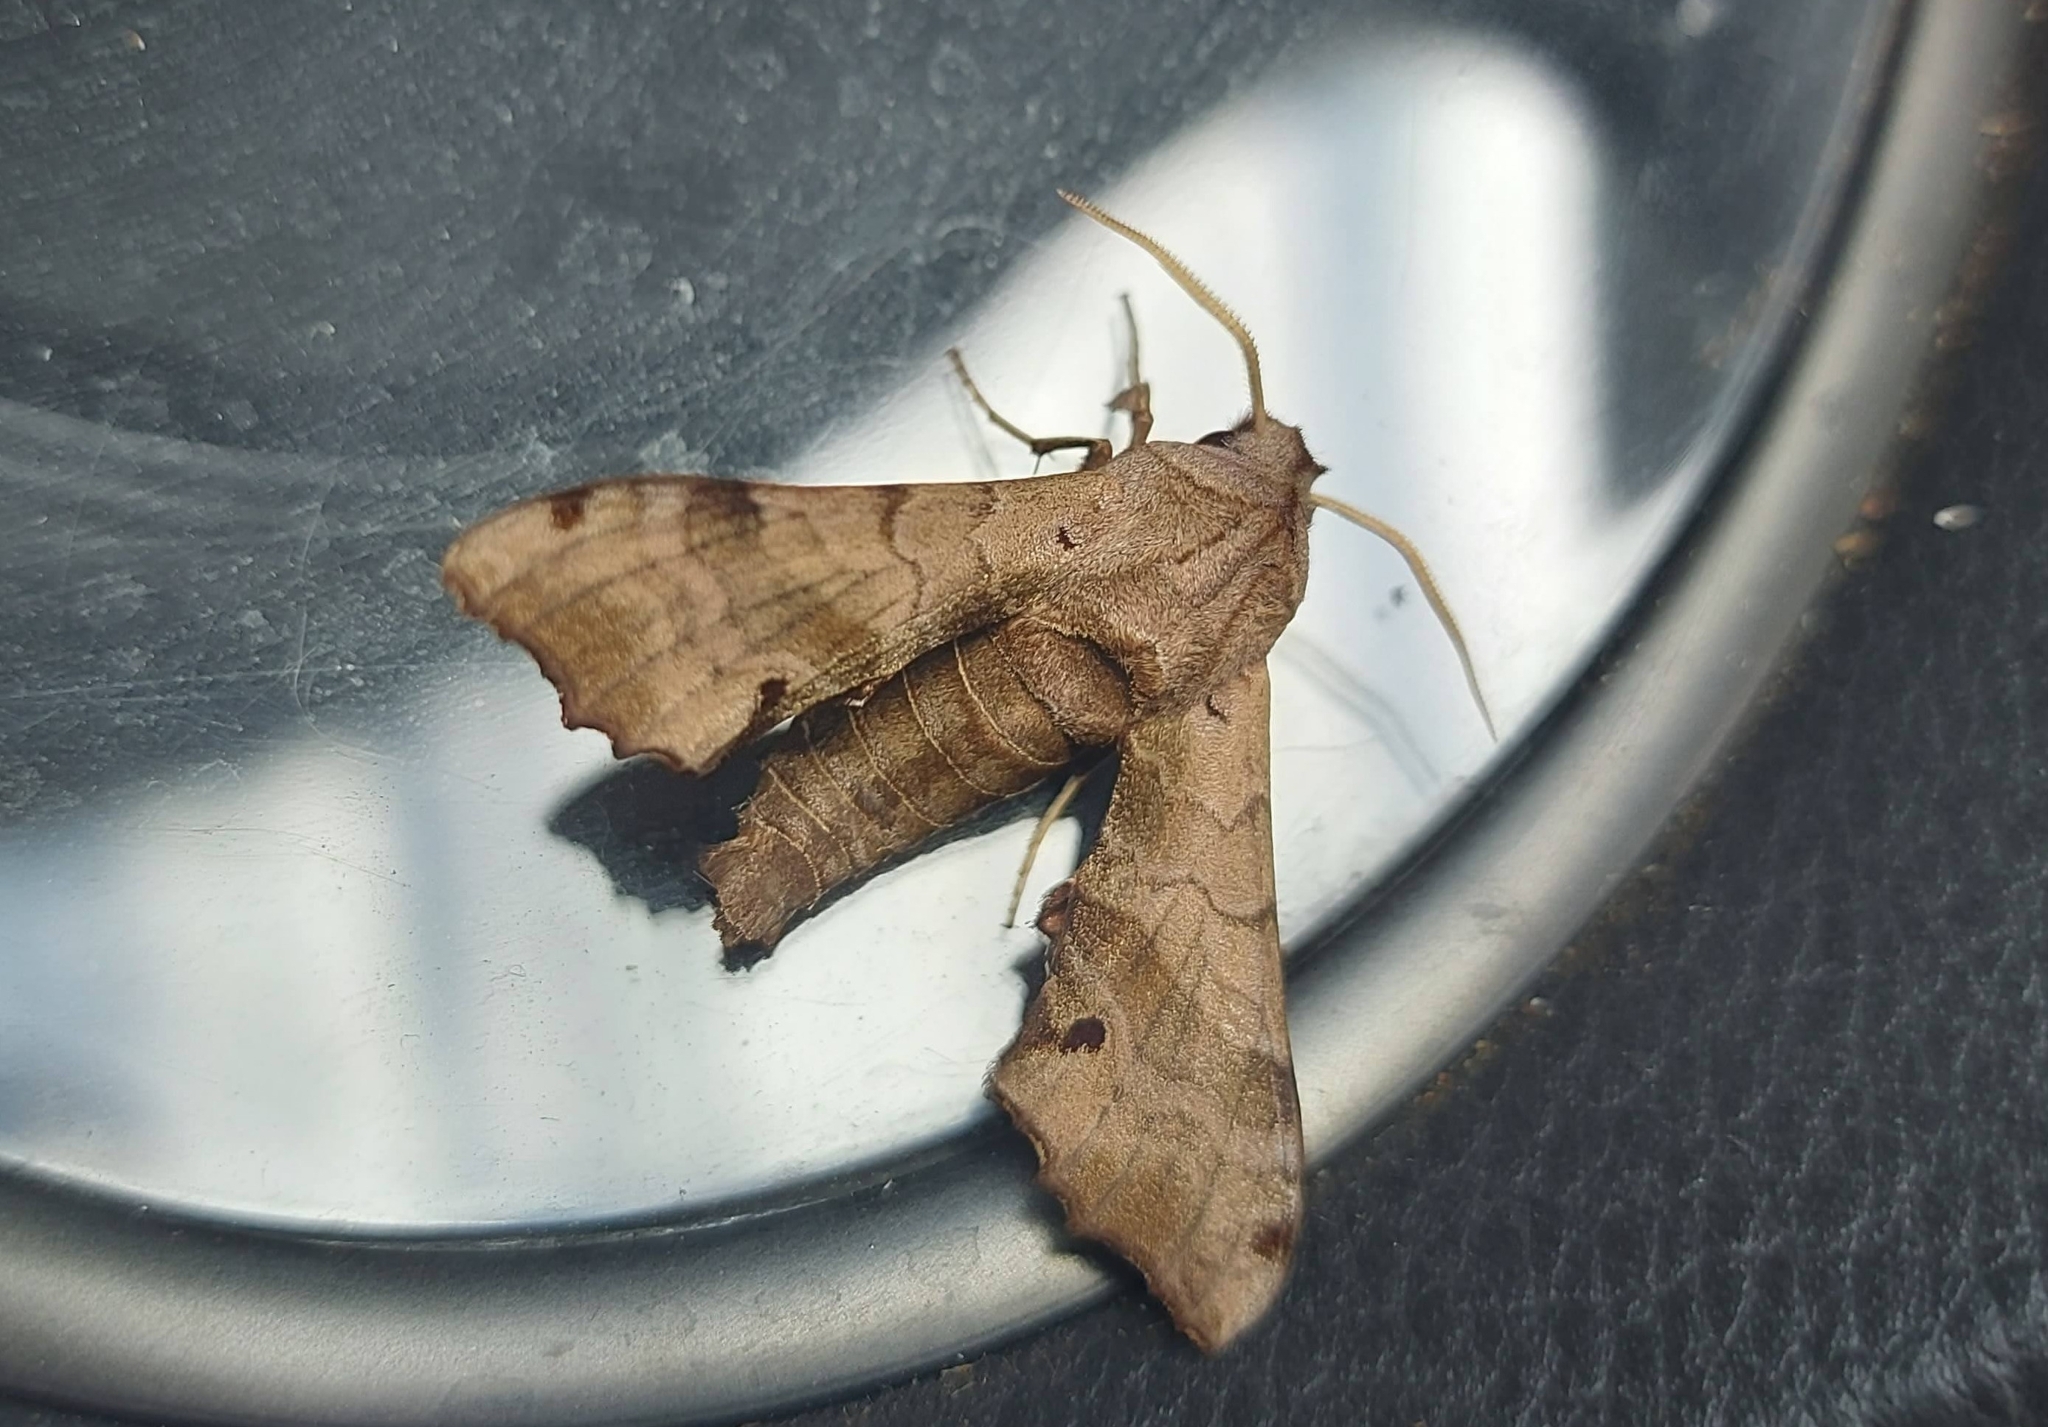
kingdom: Animalia
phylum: Arthropoda
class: Insecta
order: Lepidoptera
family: Sphingidae
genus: Odontosida
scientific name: Odontosida pusillus
